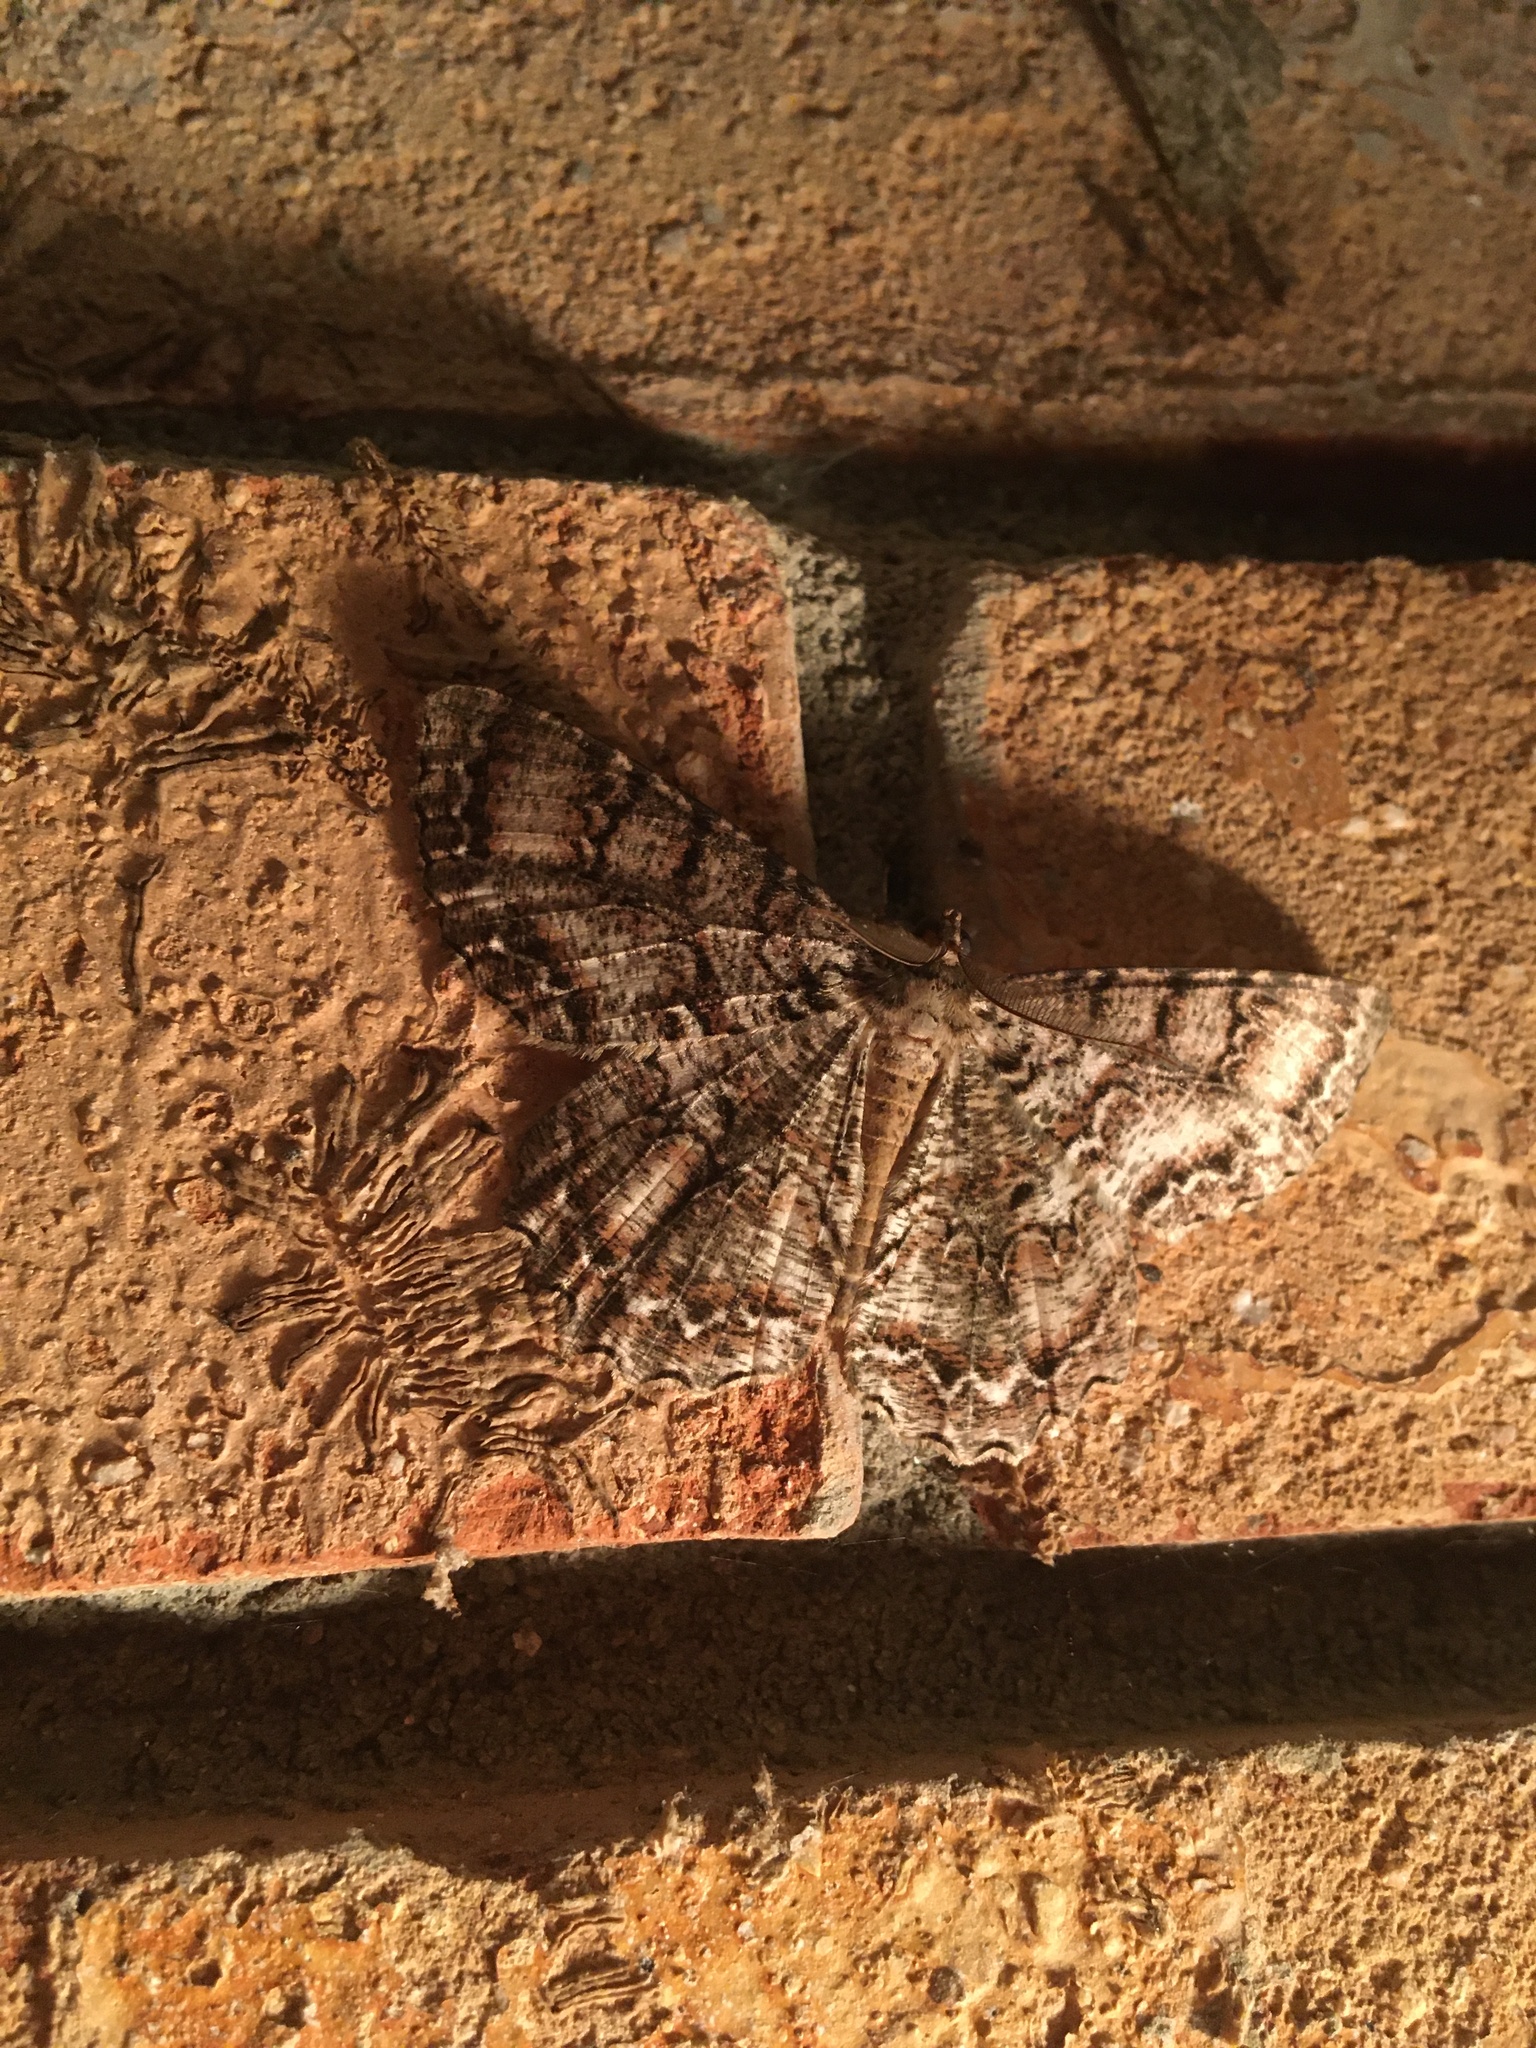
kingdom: Animalia
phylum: Arthropoda
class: Insecta
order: Lepidoptera
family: Geometridae
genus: Epimecis
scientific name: Epimecis hortaria
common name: Tulip-tree beauty
